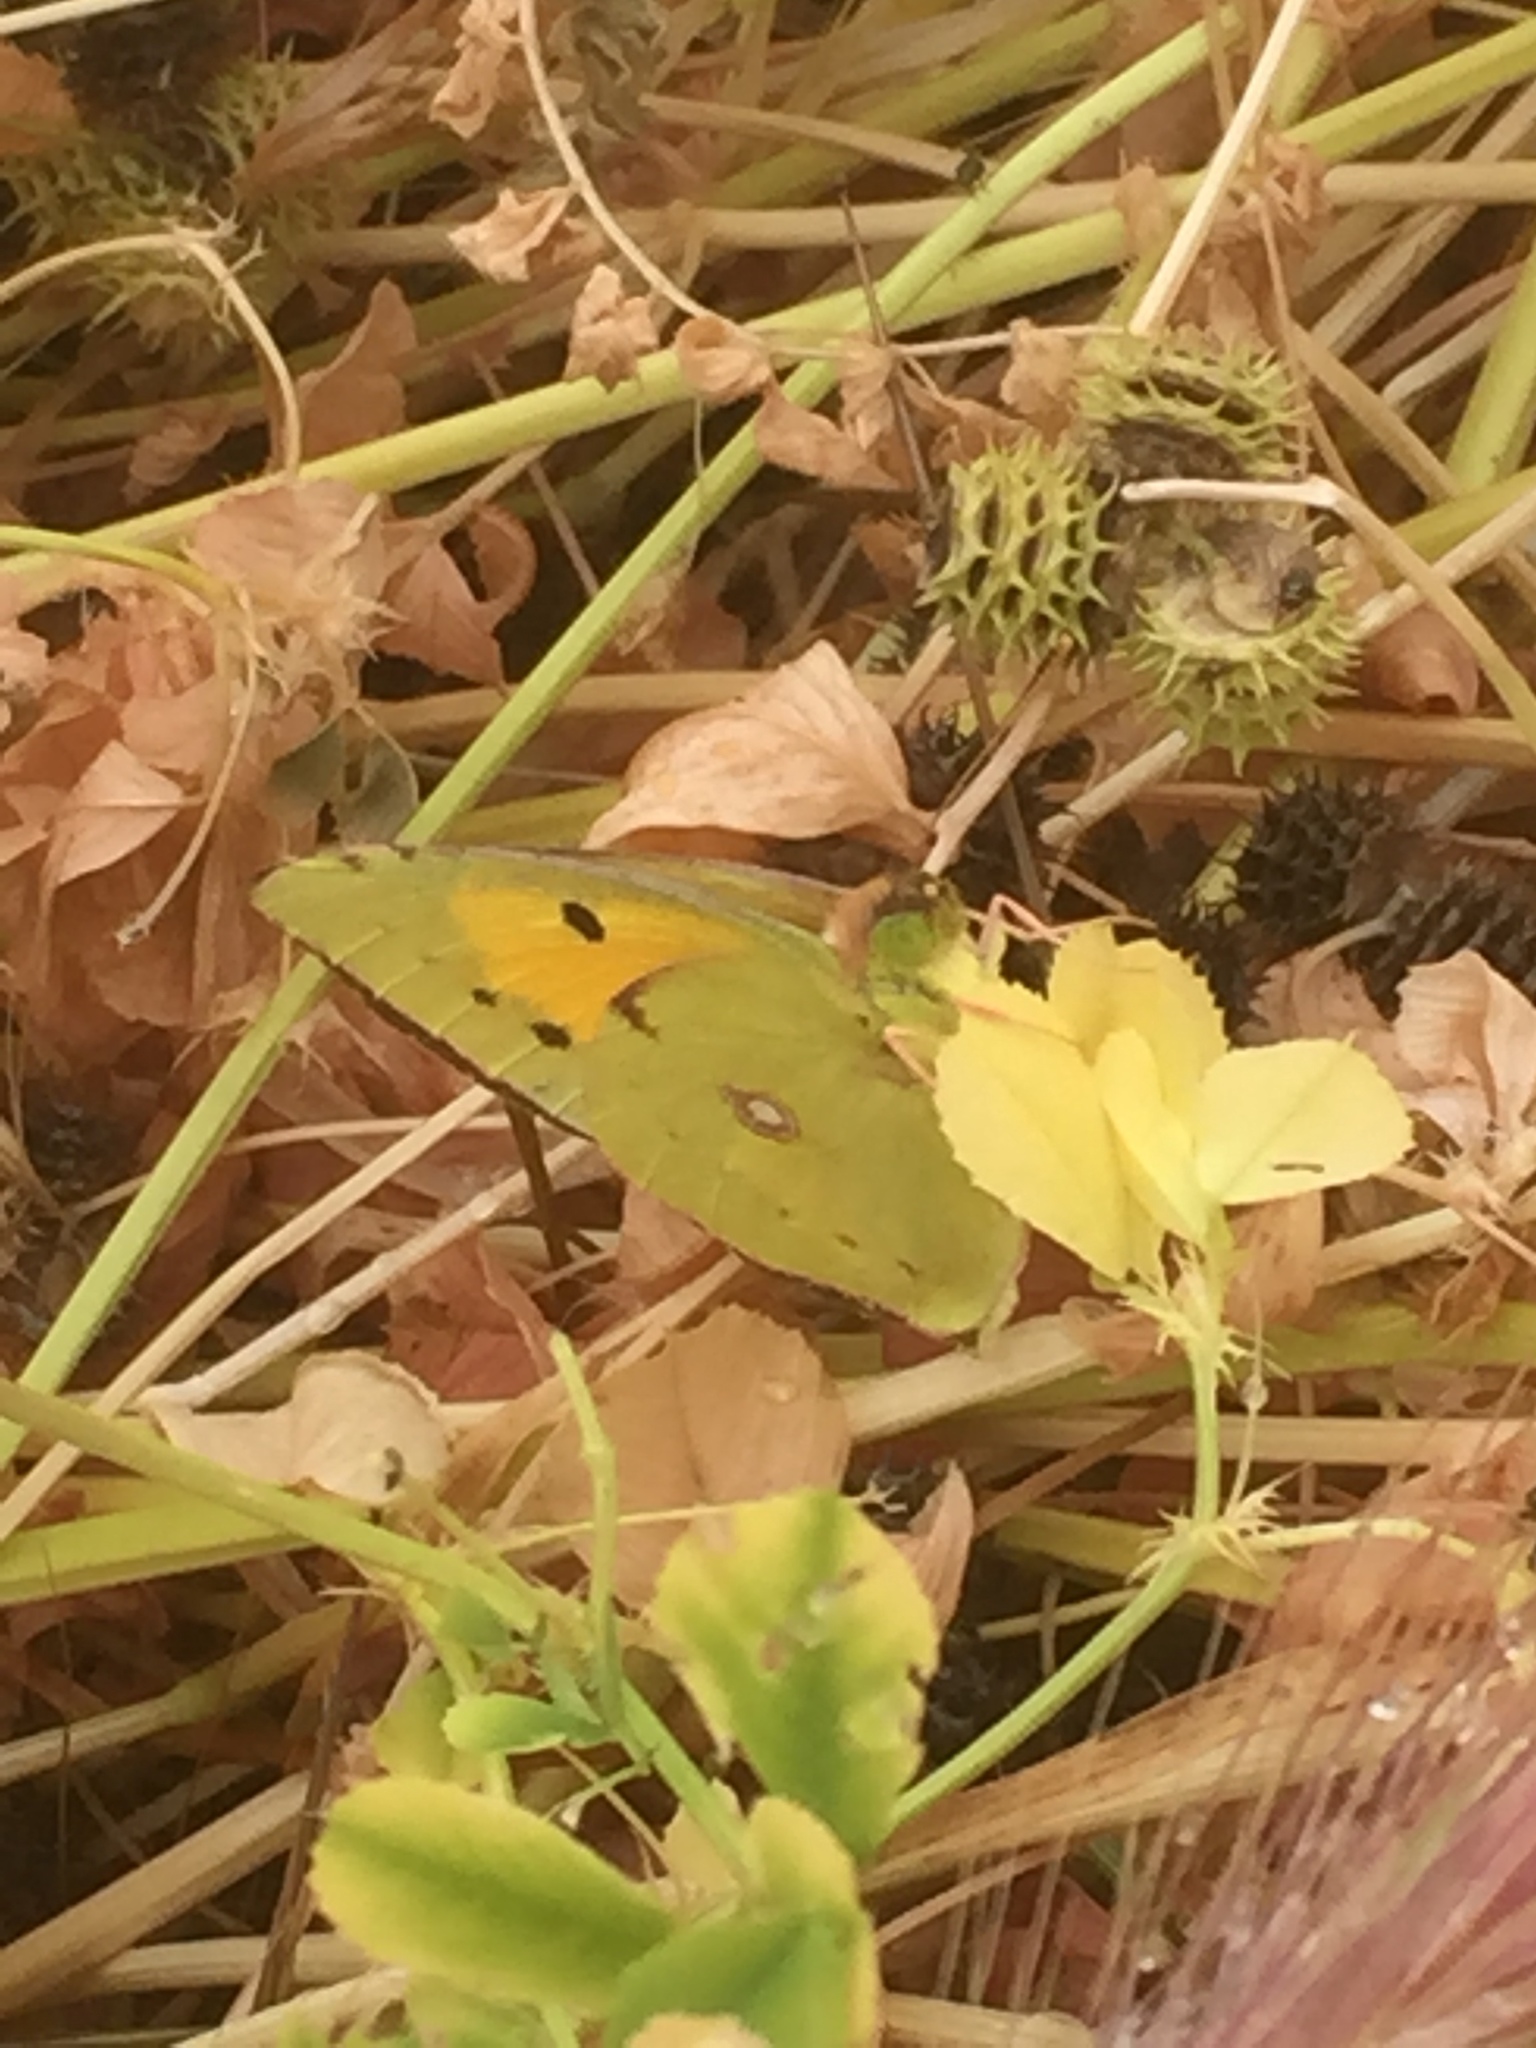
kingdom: Animalia
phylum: Arthropoda
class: Insecta
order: Lepidoptera
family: Pieridae
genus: Colias
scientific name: Colias croceus
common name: Clouded yellow
